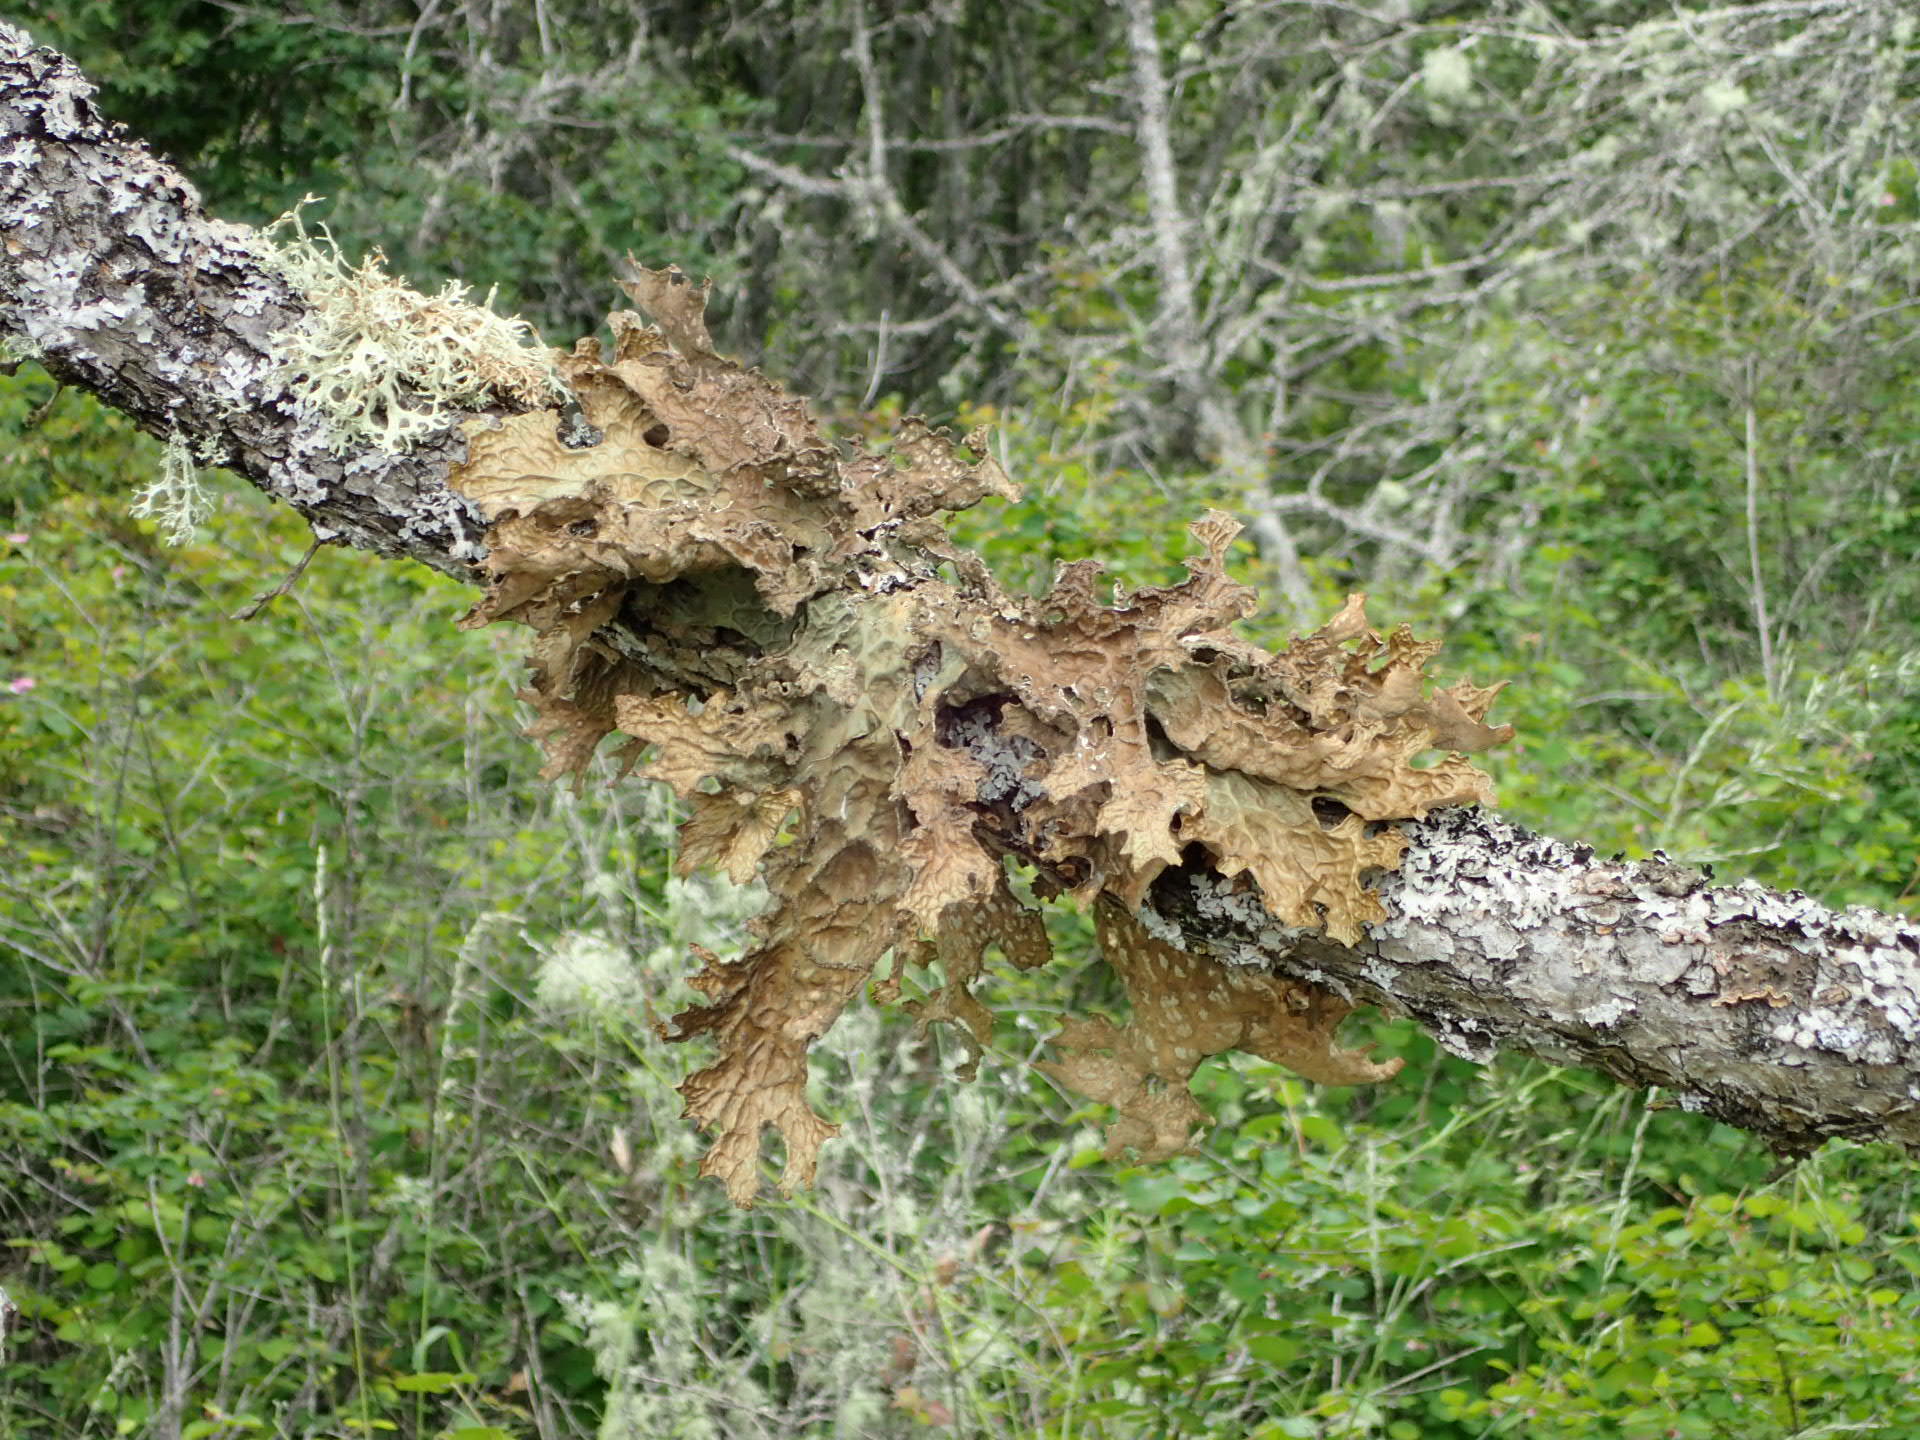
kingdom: Fungi
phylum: Ascomycota
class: Lecanoromycetes
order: Peltigerales
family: Lobariaceae
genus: Lobaria
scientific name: Lobaria pulmonaria
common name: Lungwort
